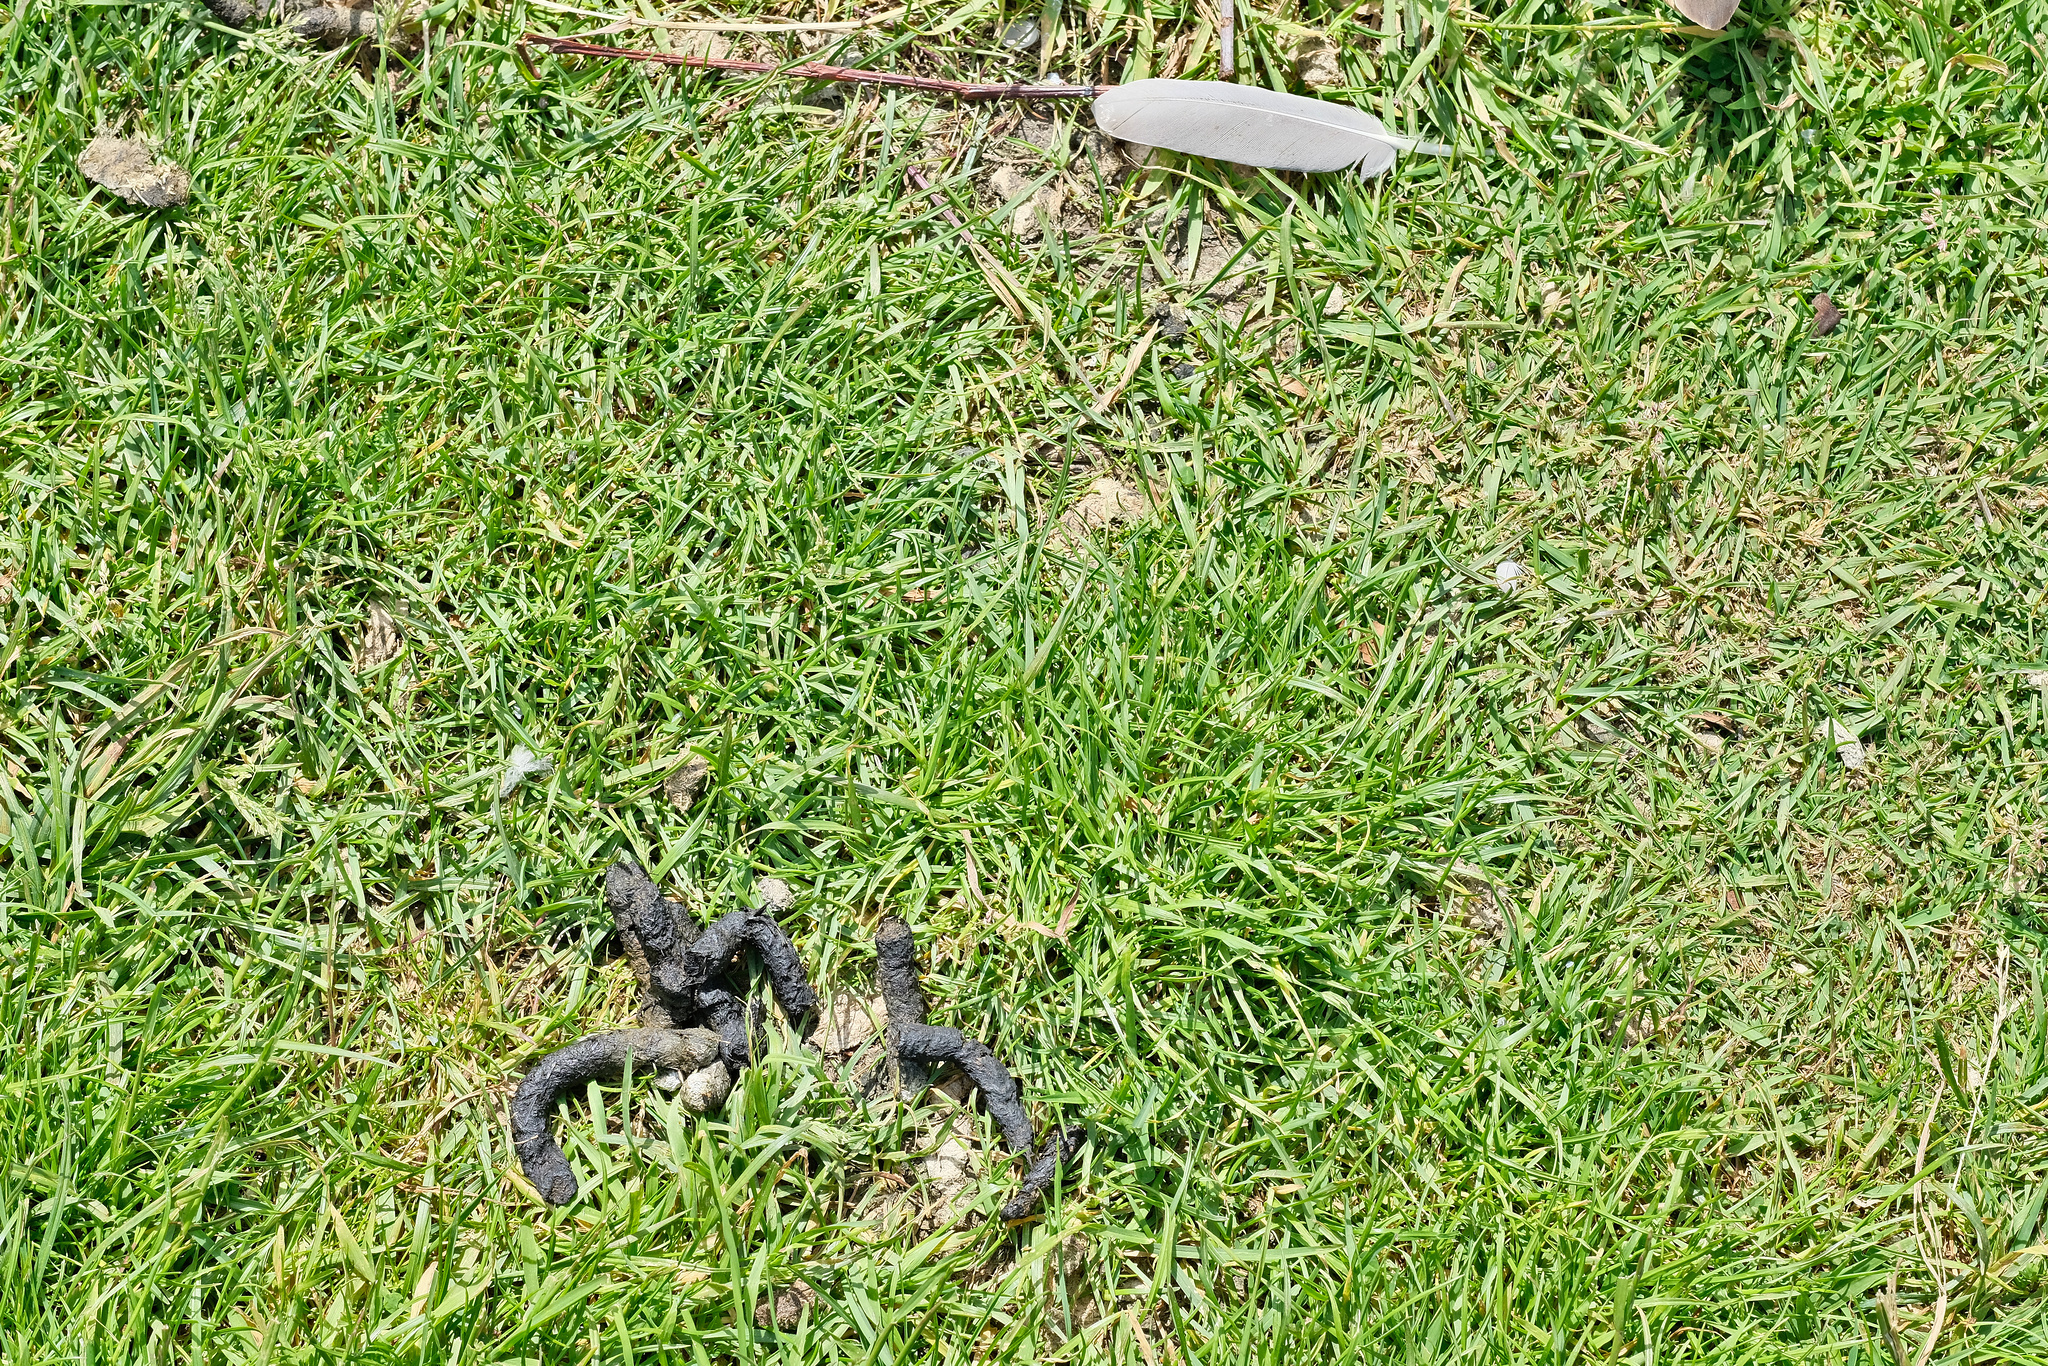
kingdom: Animalia
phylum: Chordata
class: Aves
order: Anseriformes
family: Anatidae
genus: Branta
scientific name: Branta canadensis
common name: Canada goose
